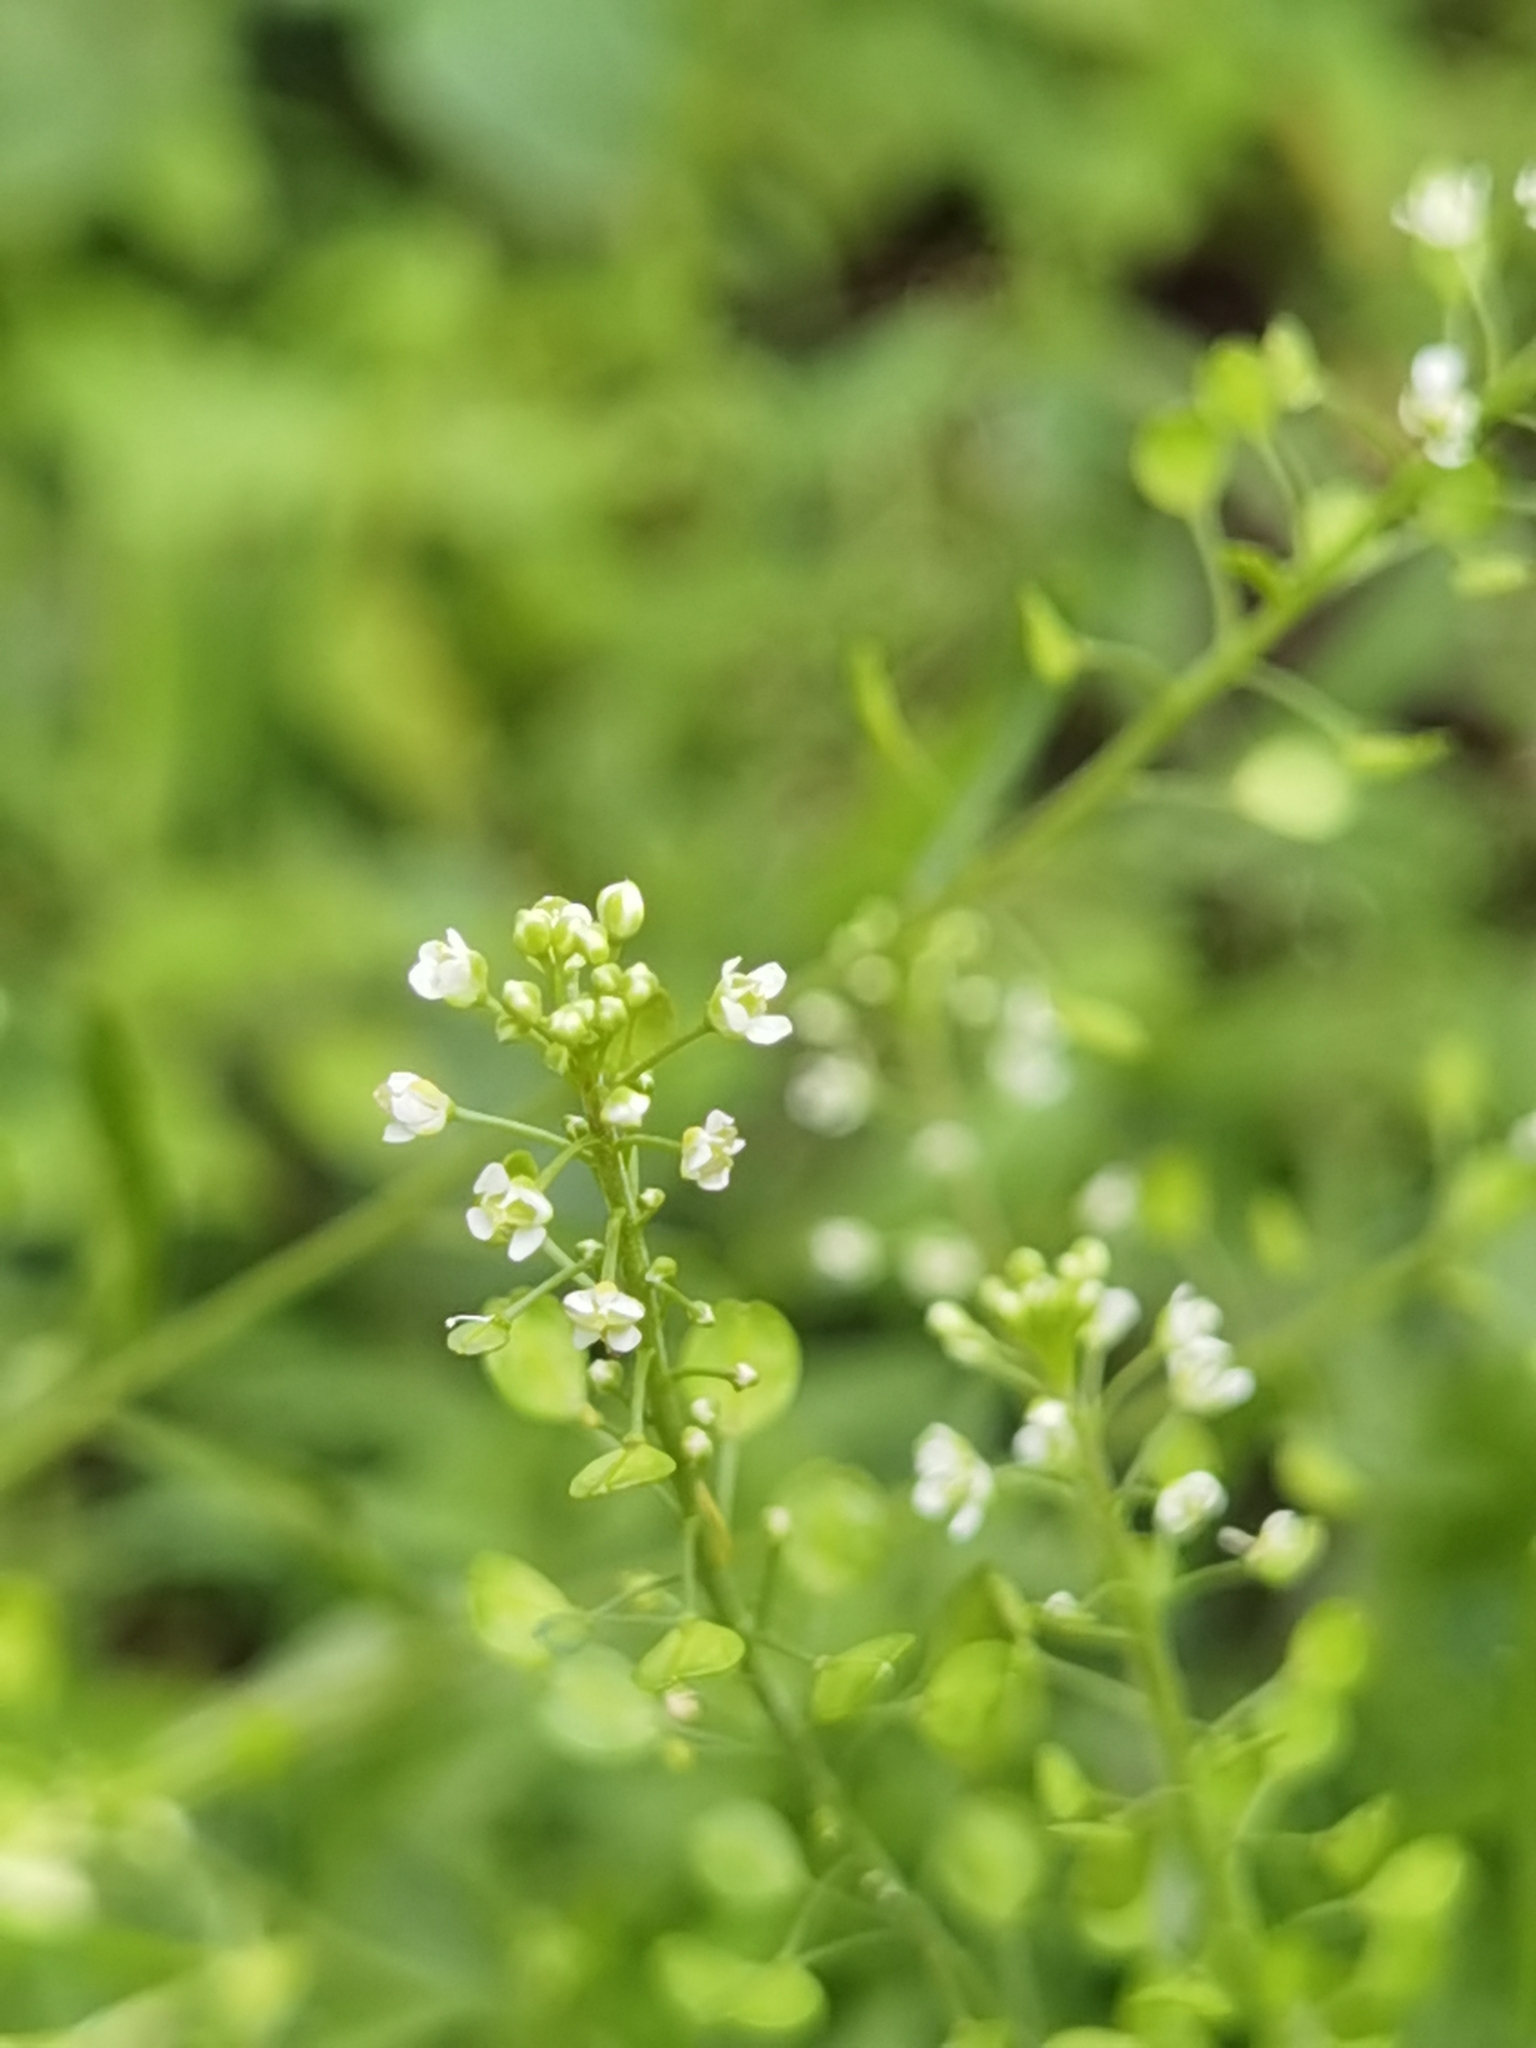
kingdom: Plantae
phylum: Tracheophyta
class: Magnoliopsida
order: Brassicales
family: Brassicaceae
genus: Lepidium
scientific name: Lepidium virginicum
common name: Least pepperwort
